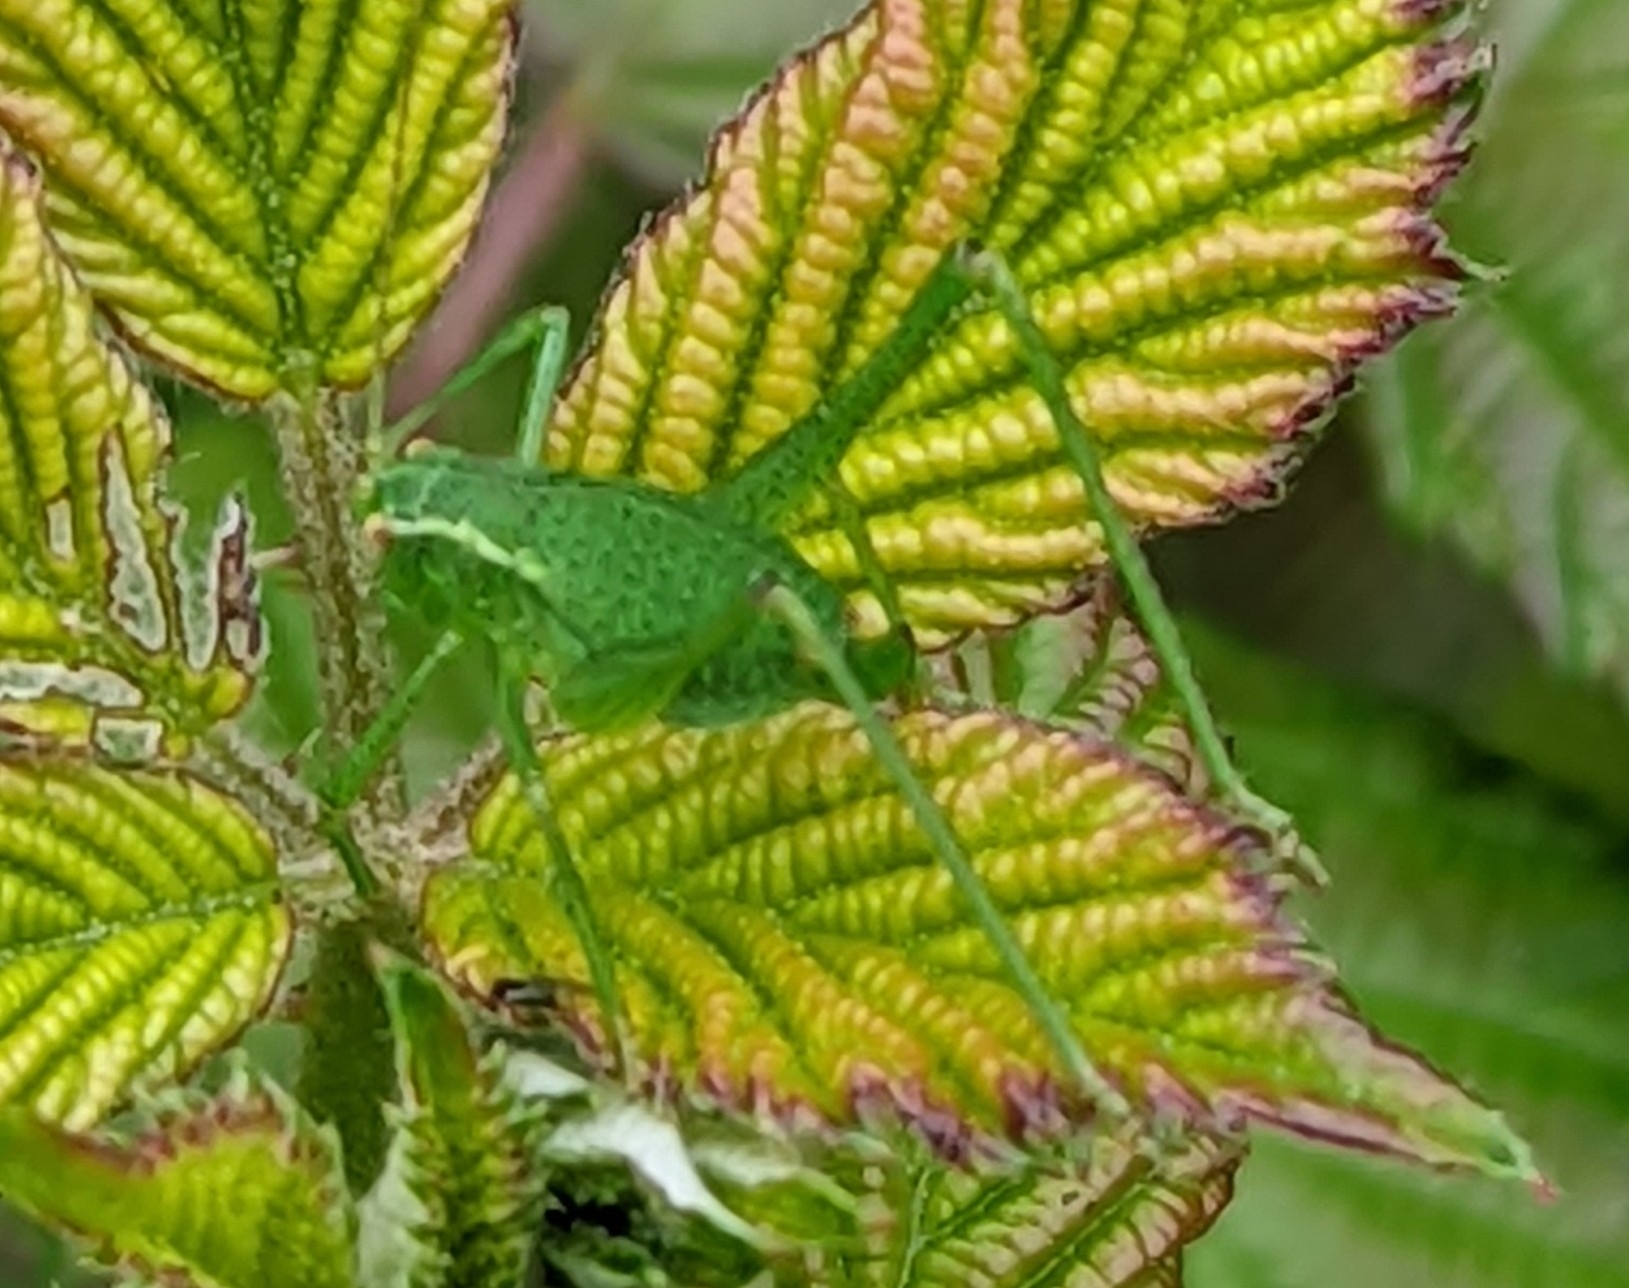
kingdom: Animalia
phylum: Arthropoda
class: Insecta
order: Orthoptera
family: Tettigoniidae
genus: Leptophyes
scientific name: Leptophyes punctatissima
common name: Speckled bush-cricket
